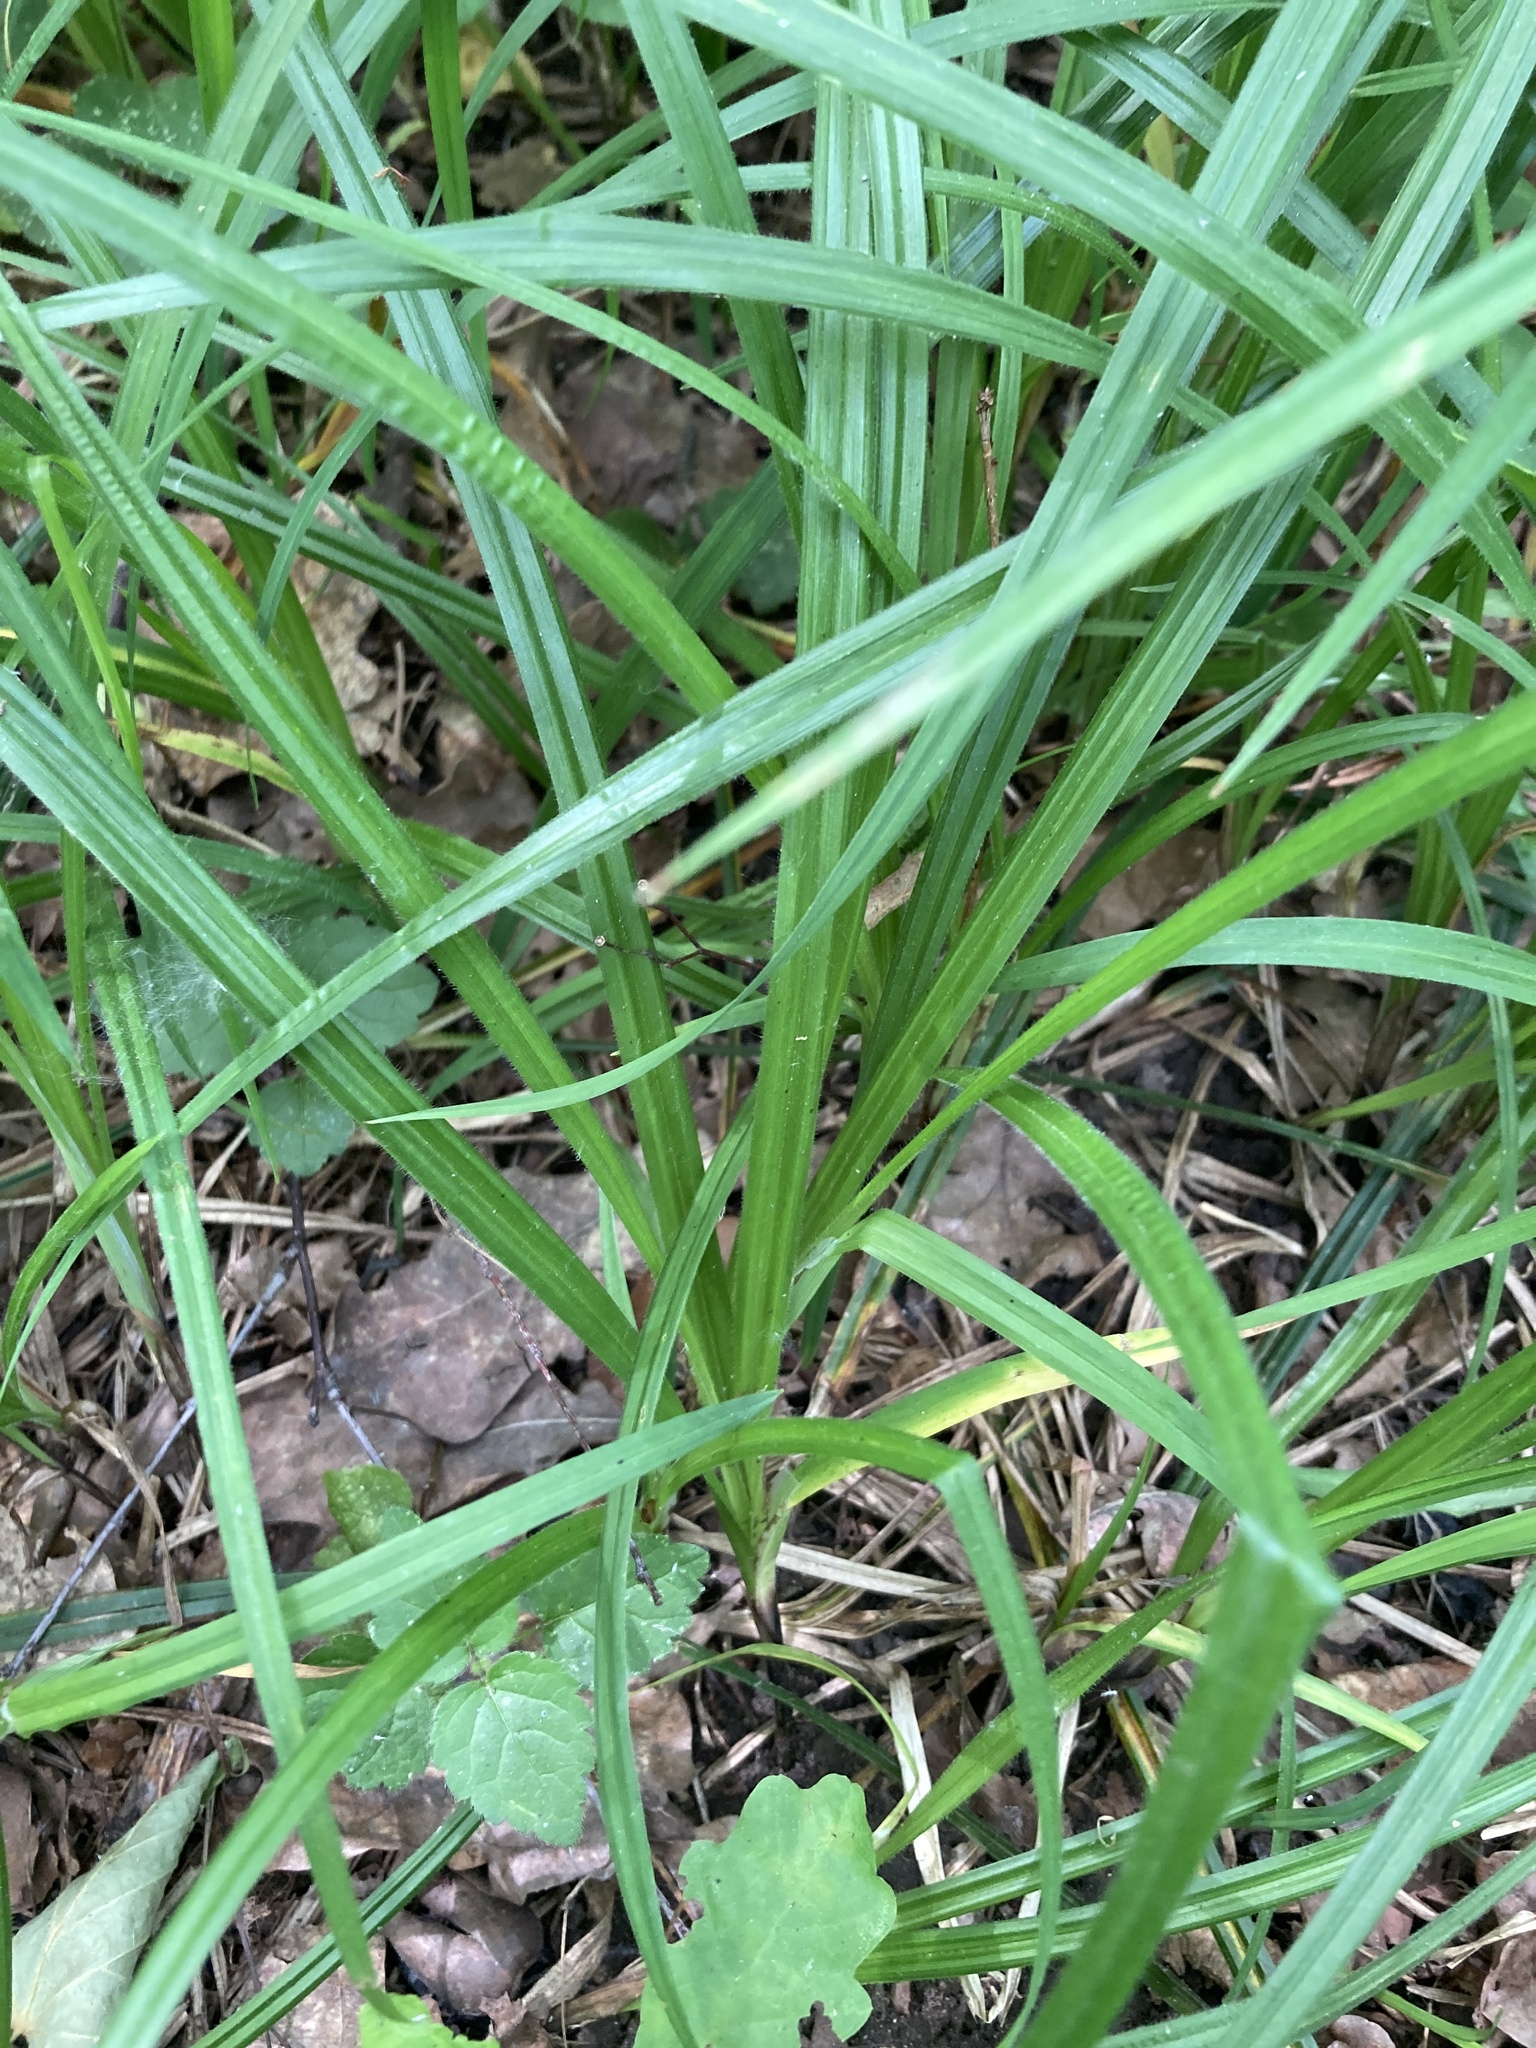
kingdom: Plantae
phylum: Tracheophyta
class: Liliopsida
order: Poales
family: Cyperaceae
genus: Carex
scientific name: Carex pilosa
